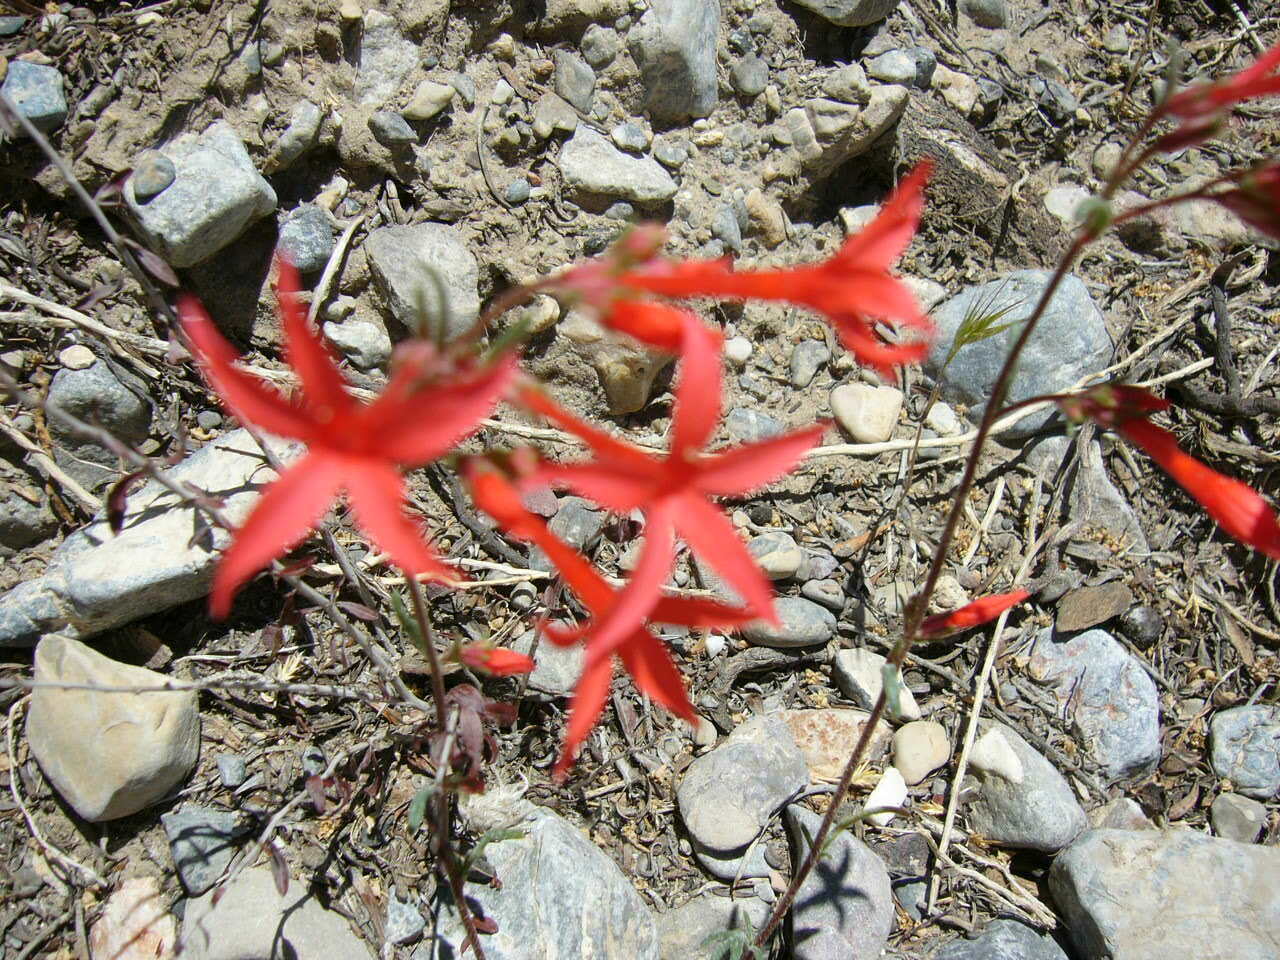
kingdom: Plantae
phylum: Tracheophyta
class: Magnoliopsida
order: Ericales
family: Polemoniaceae
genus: Ipomopsis
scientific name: Ipomopsis arizonica
